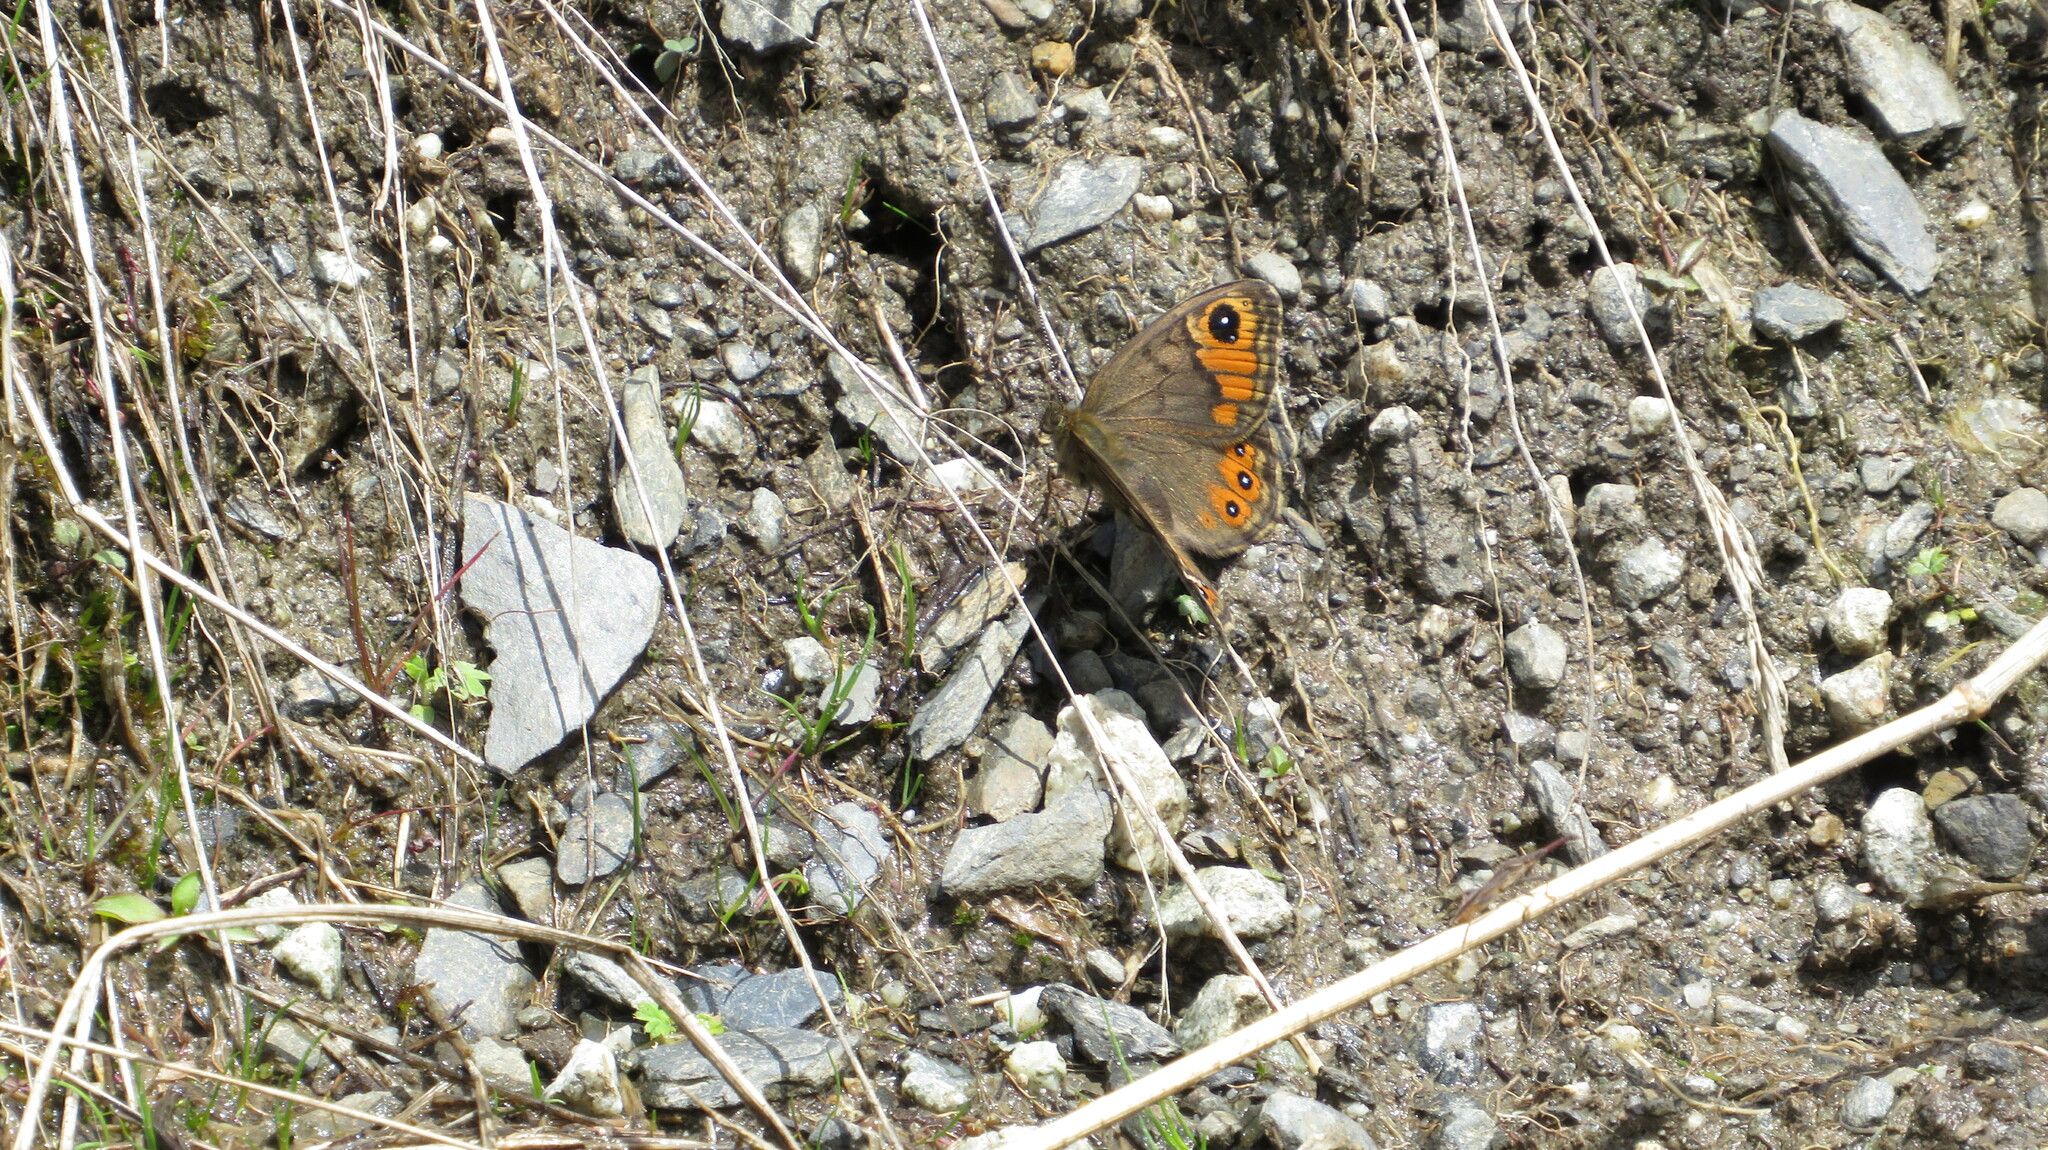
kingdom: Animalia
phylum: Arthropoda
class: Insecta
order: Lepidoptera
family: Nymphalidae
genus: Pararge
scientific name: Pararge petropolitana
